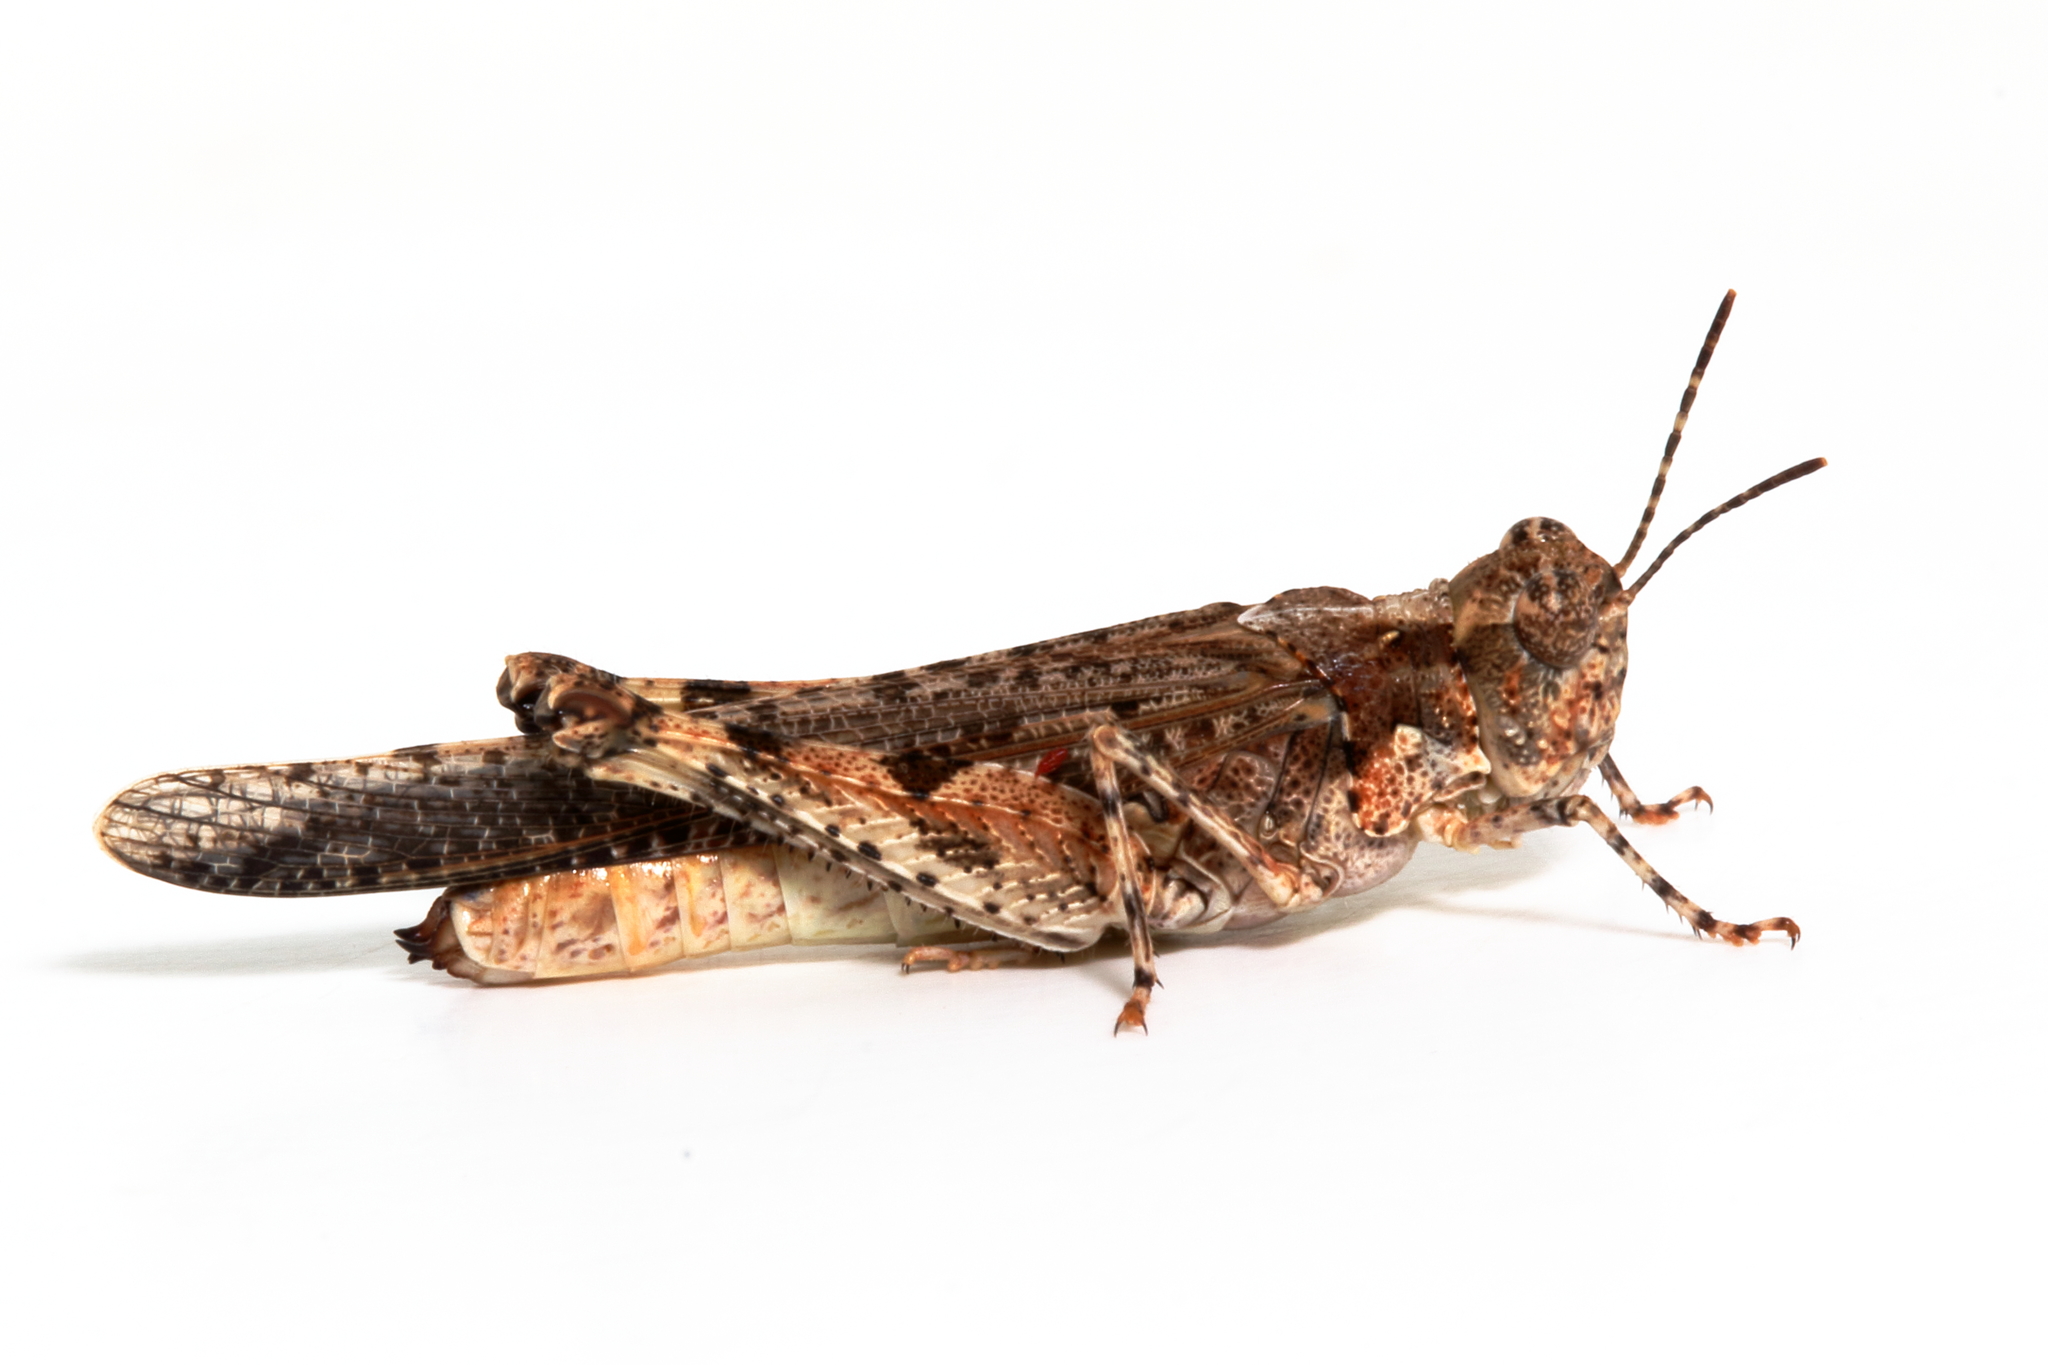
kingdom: Animalia
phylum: Arthropoda
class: Insecta
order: Orthoptera
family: Acrididae
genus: Pycnostictus
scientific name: Pycnostictus seriatus
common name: Common bandwing
